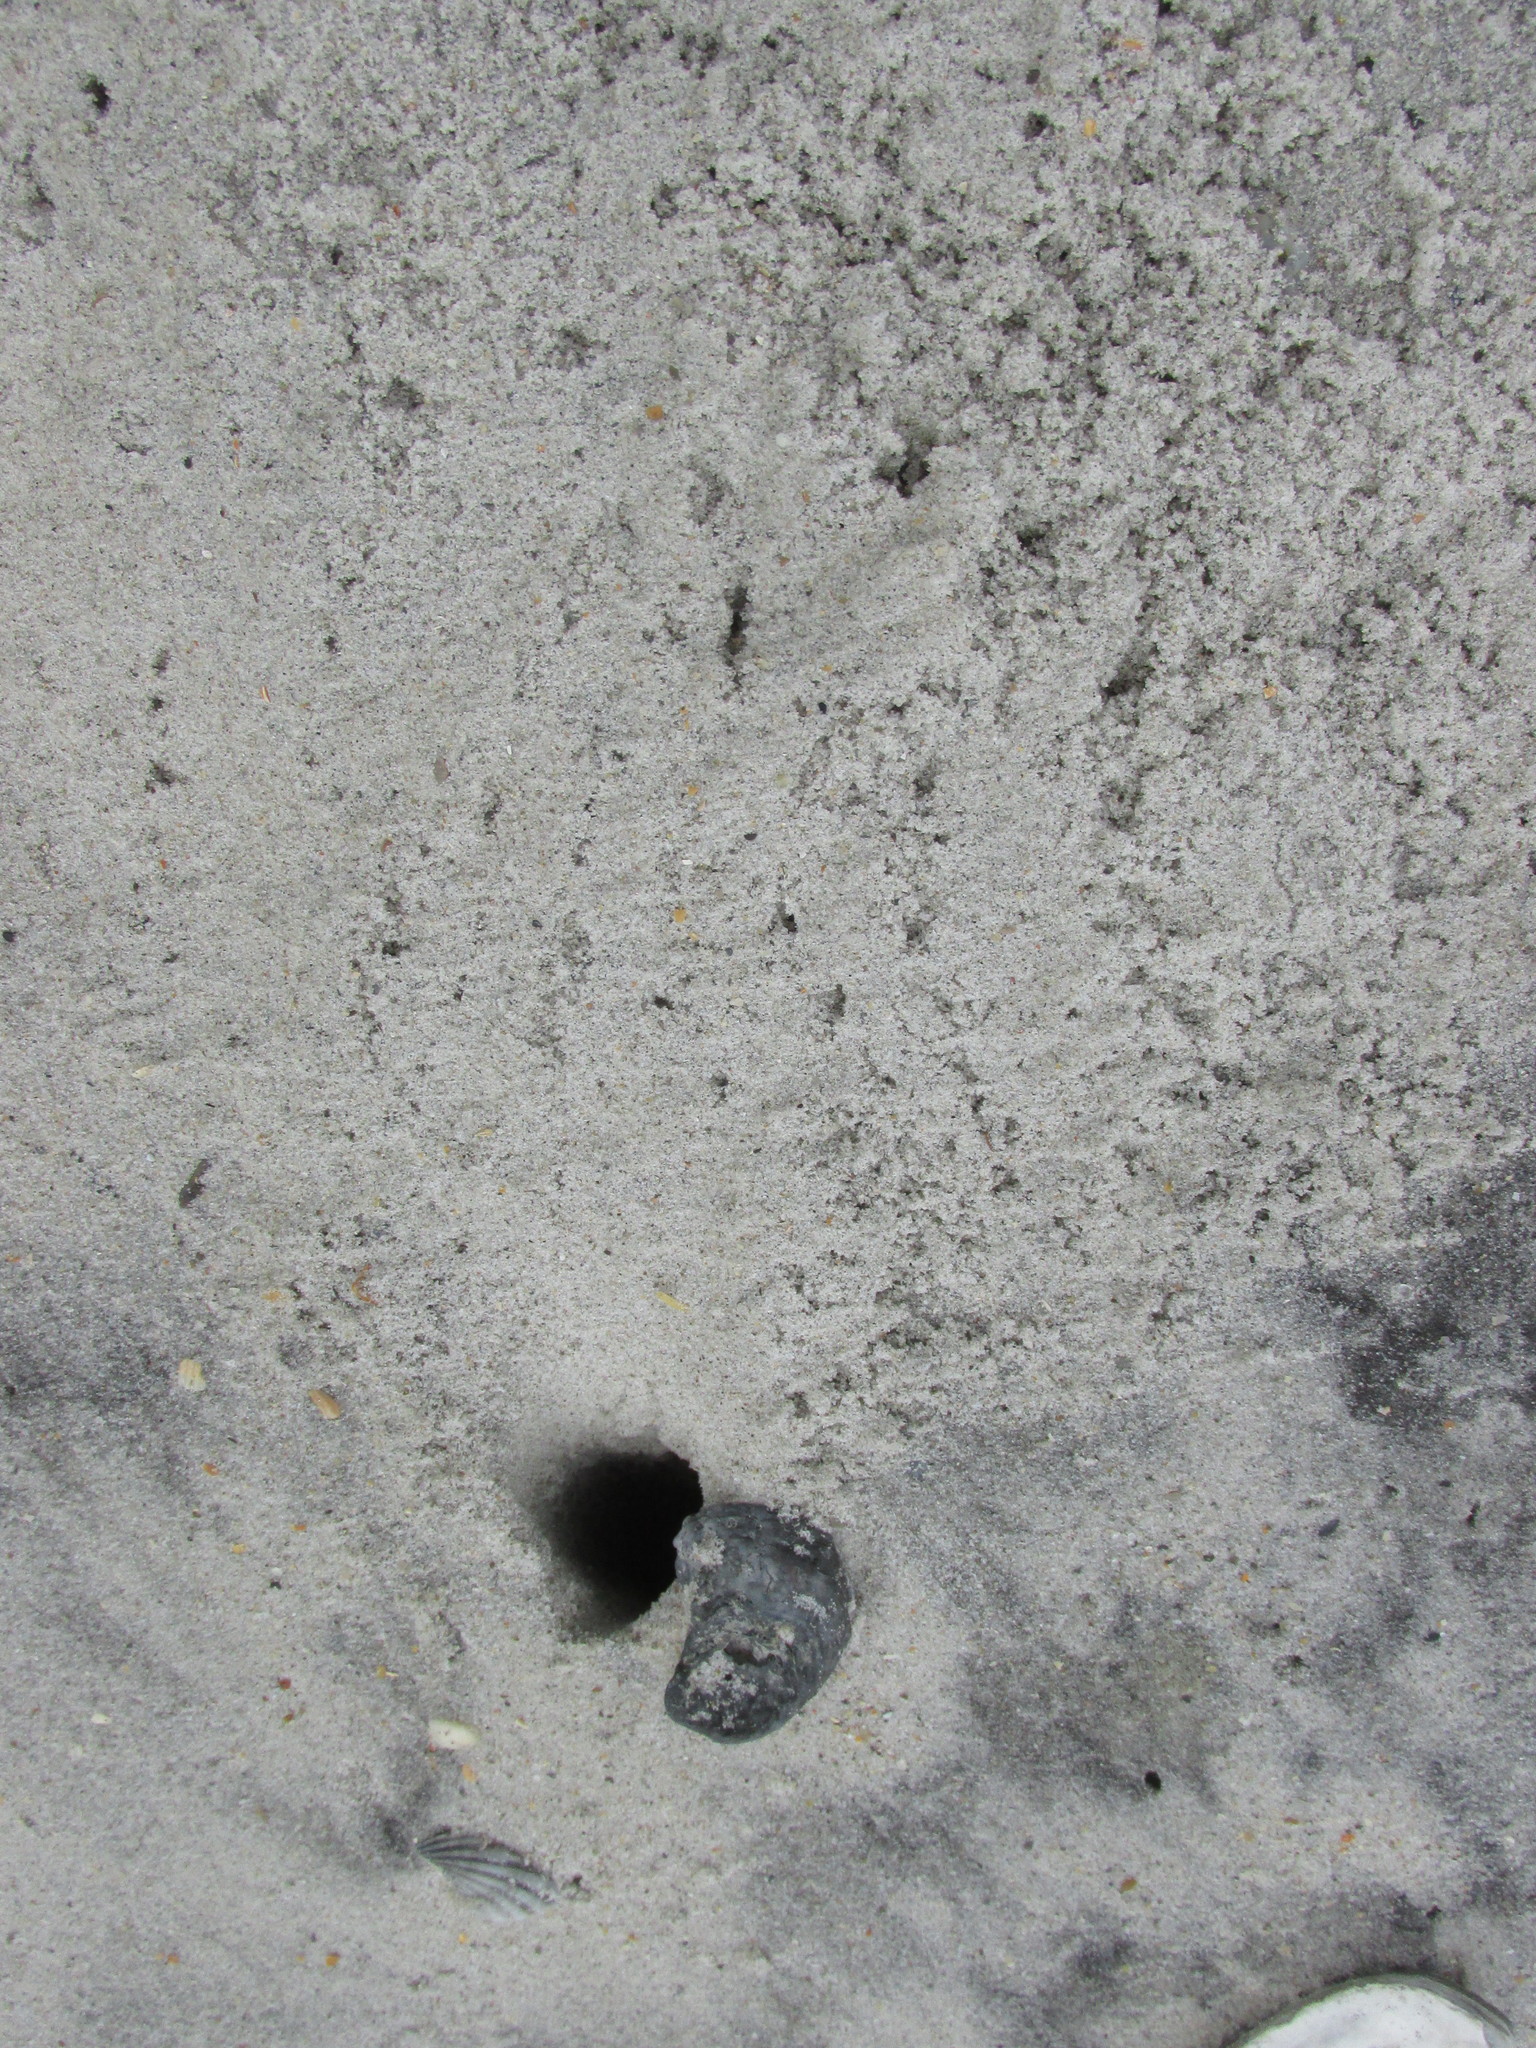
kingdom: Animalia
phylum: Arthropoda
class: Malacostraca
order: Decapoda
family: Ocypodidae
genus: Ocypode
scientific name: Ocypode quadrata
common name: Ghost crab
